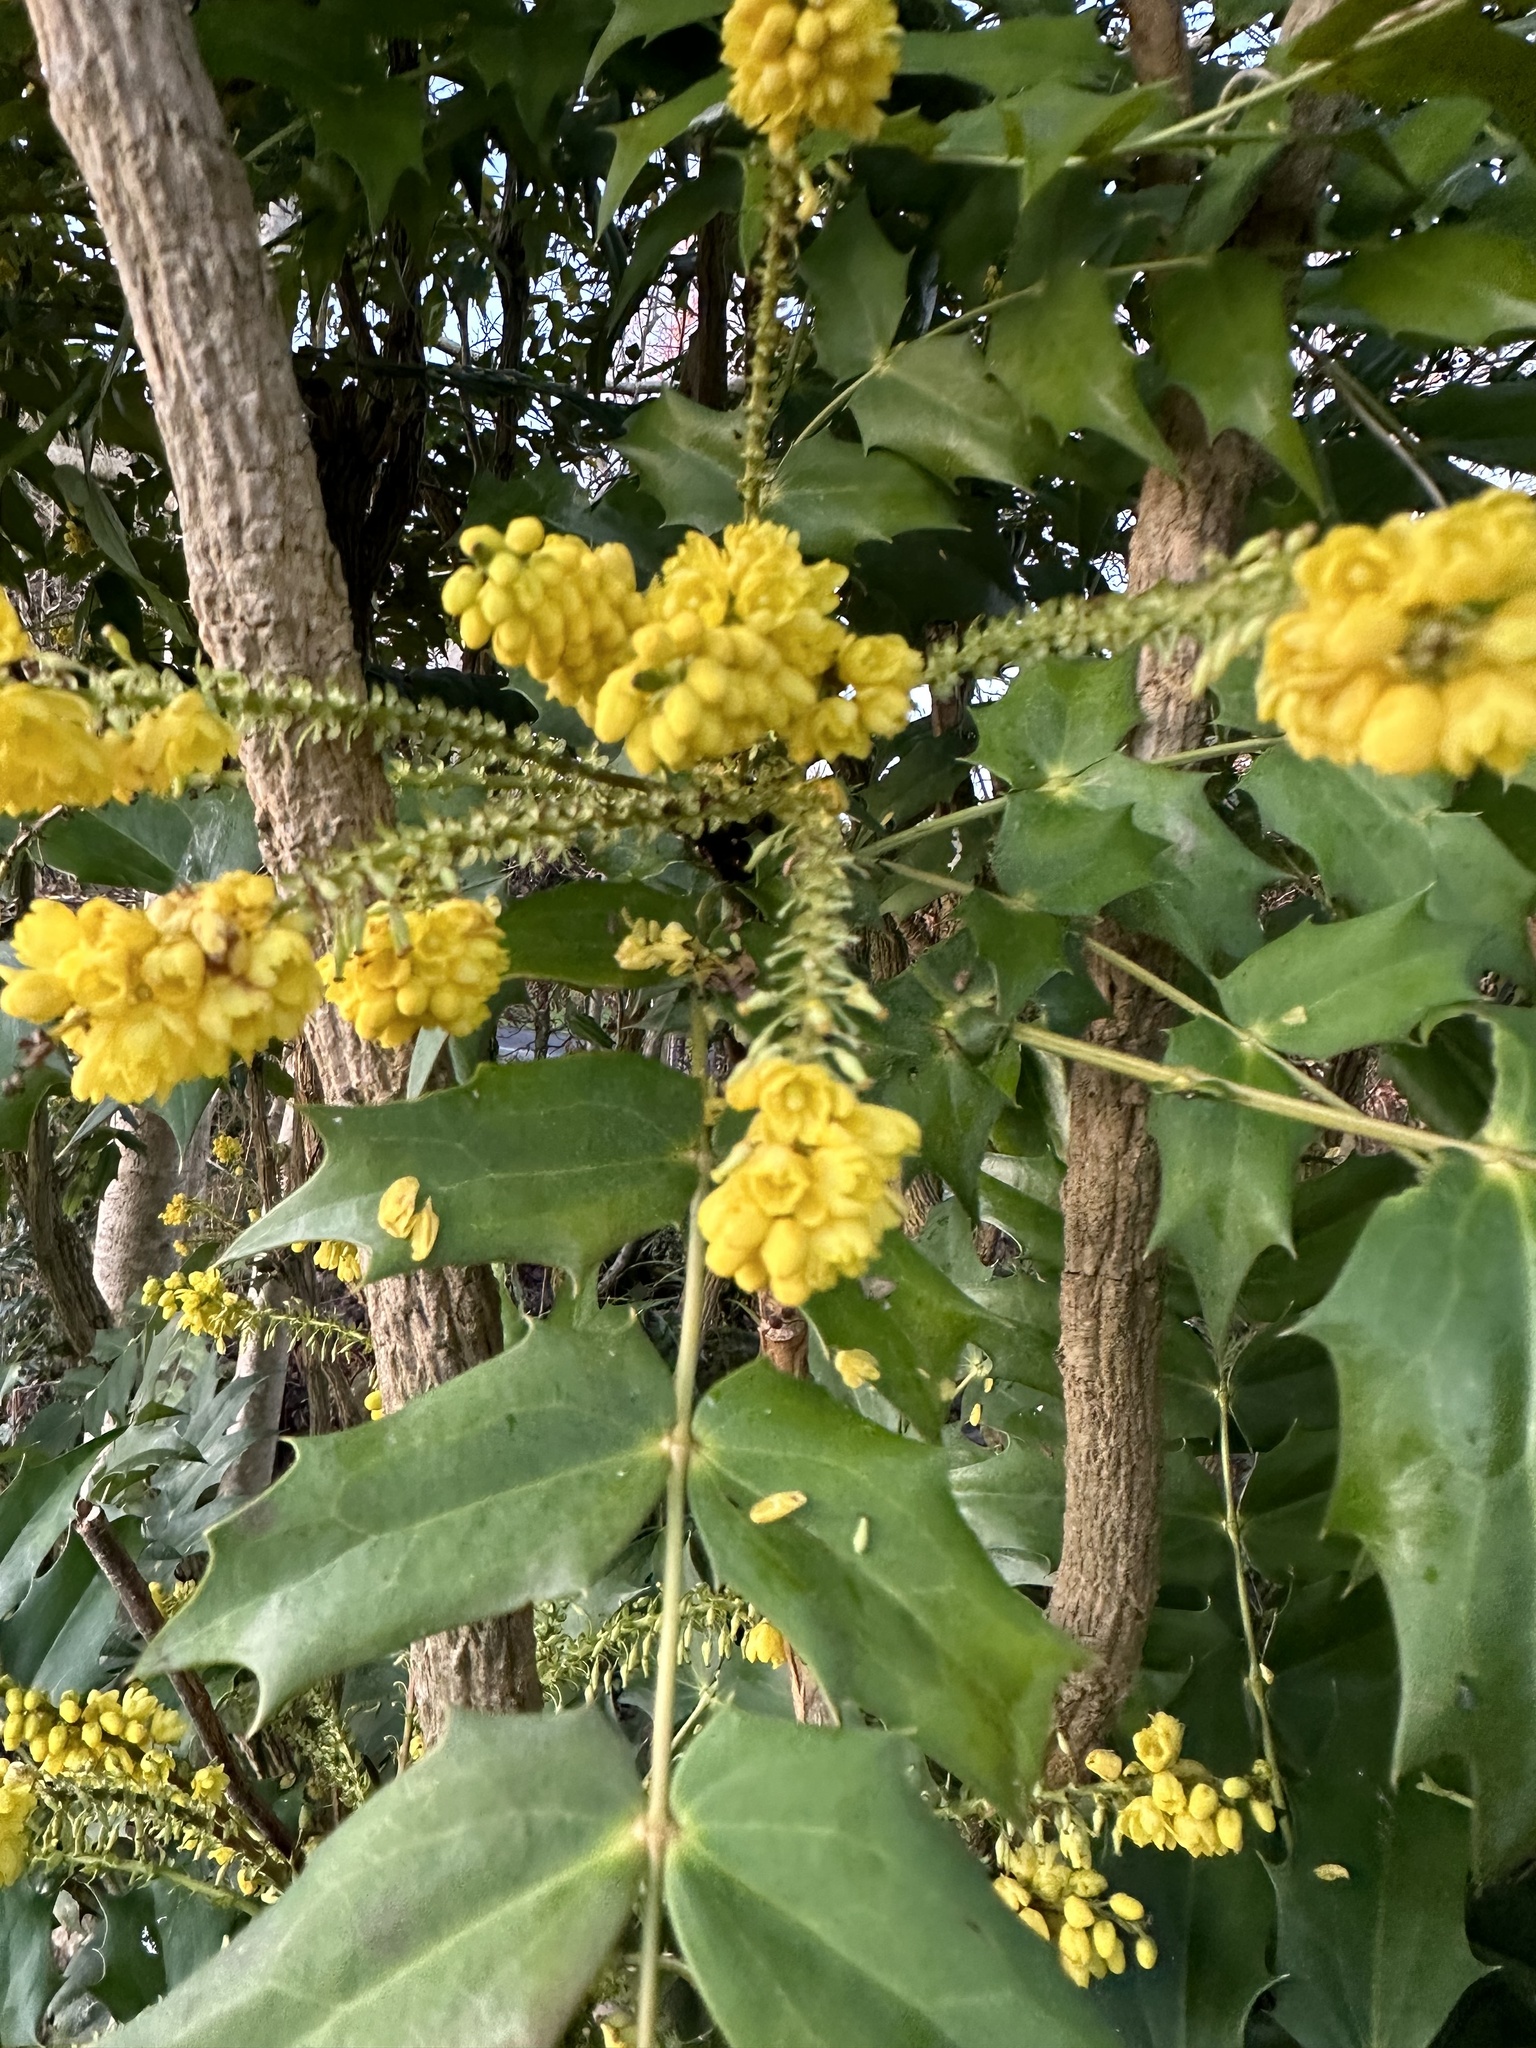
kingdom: Plantae
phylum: Tracheophyta
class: Magnoliopsida
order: Ranunculales
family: Berberidaceae
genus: Mahonia
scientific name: Mahonia bealei
